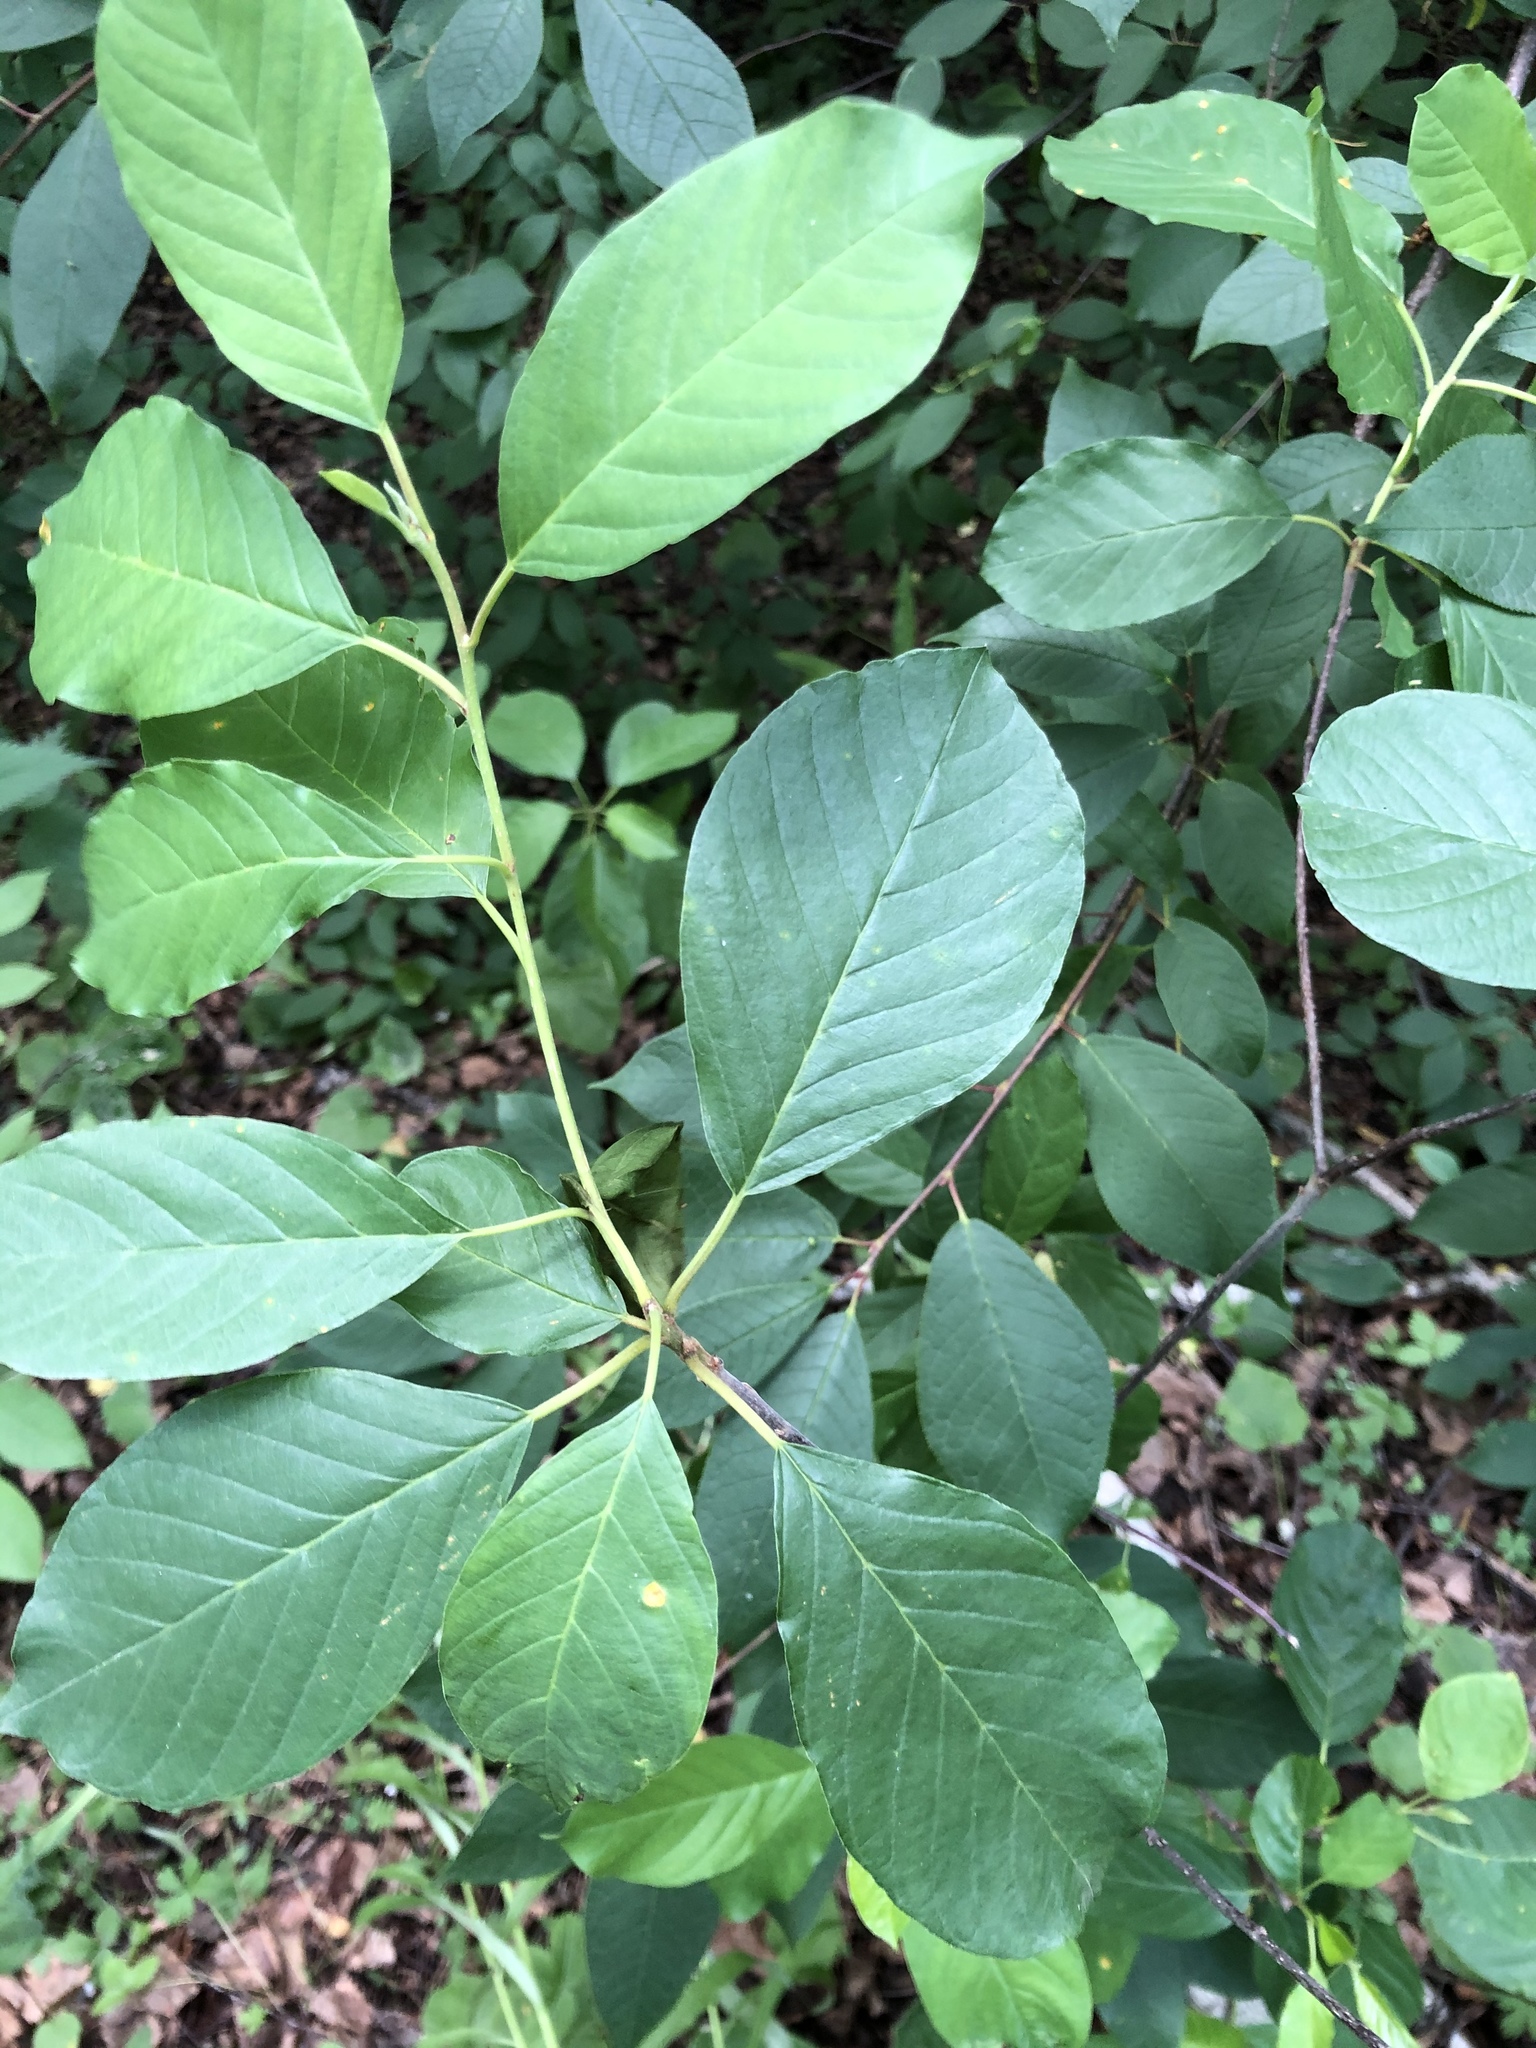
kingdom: Plantae
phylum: Tracheophyta
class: Magnoliopsida
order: Rosales
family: Rhamnaceae
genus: Frangula
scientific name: Frangula alnus
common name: Alder buckthorn
